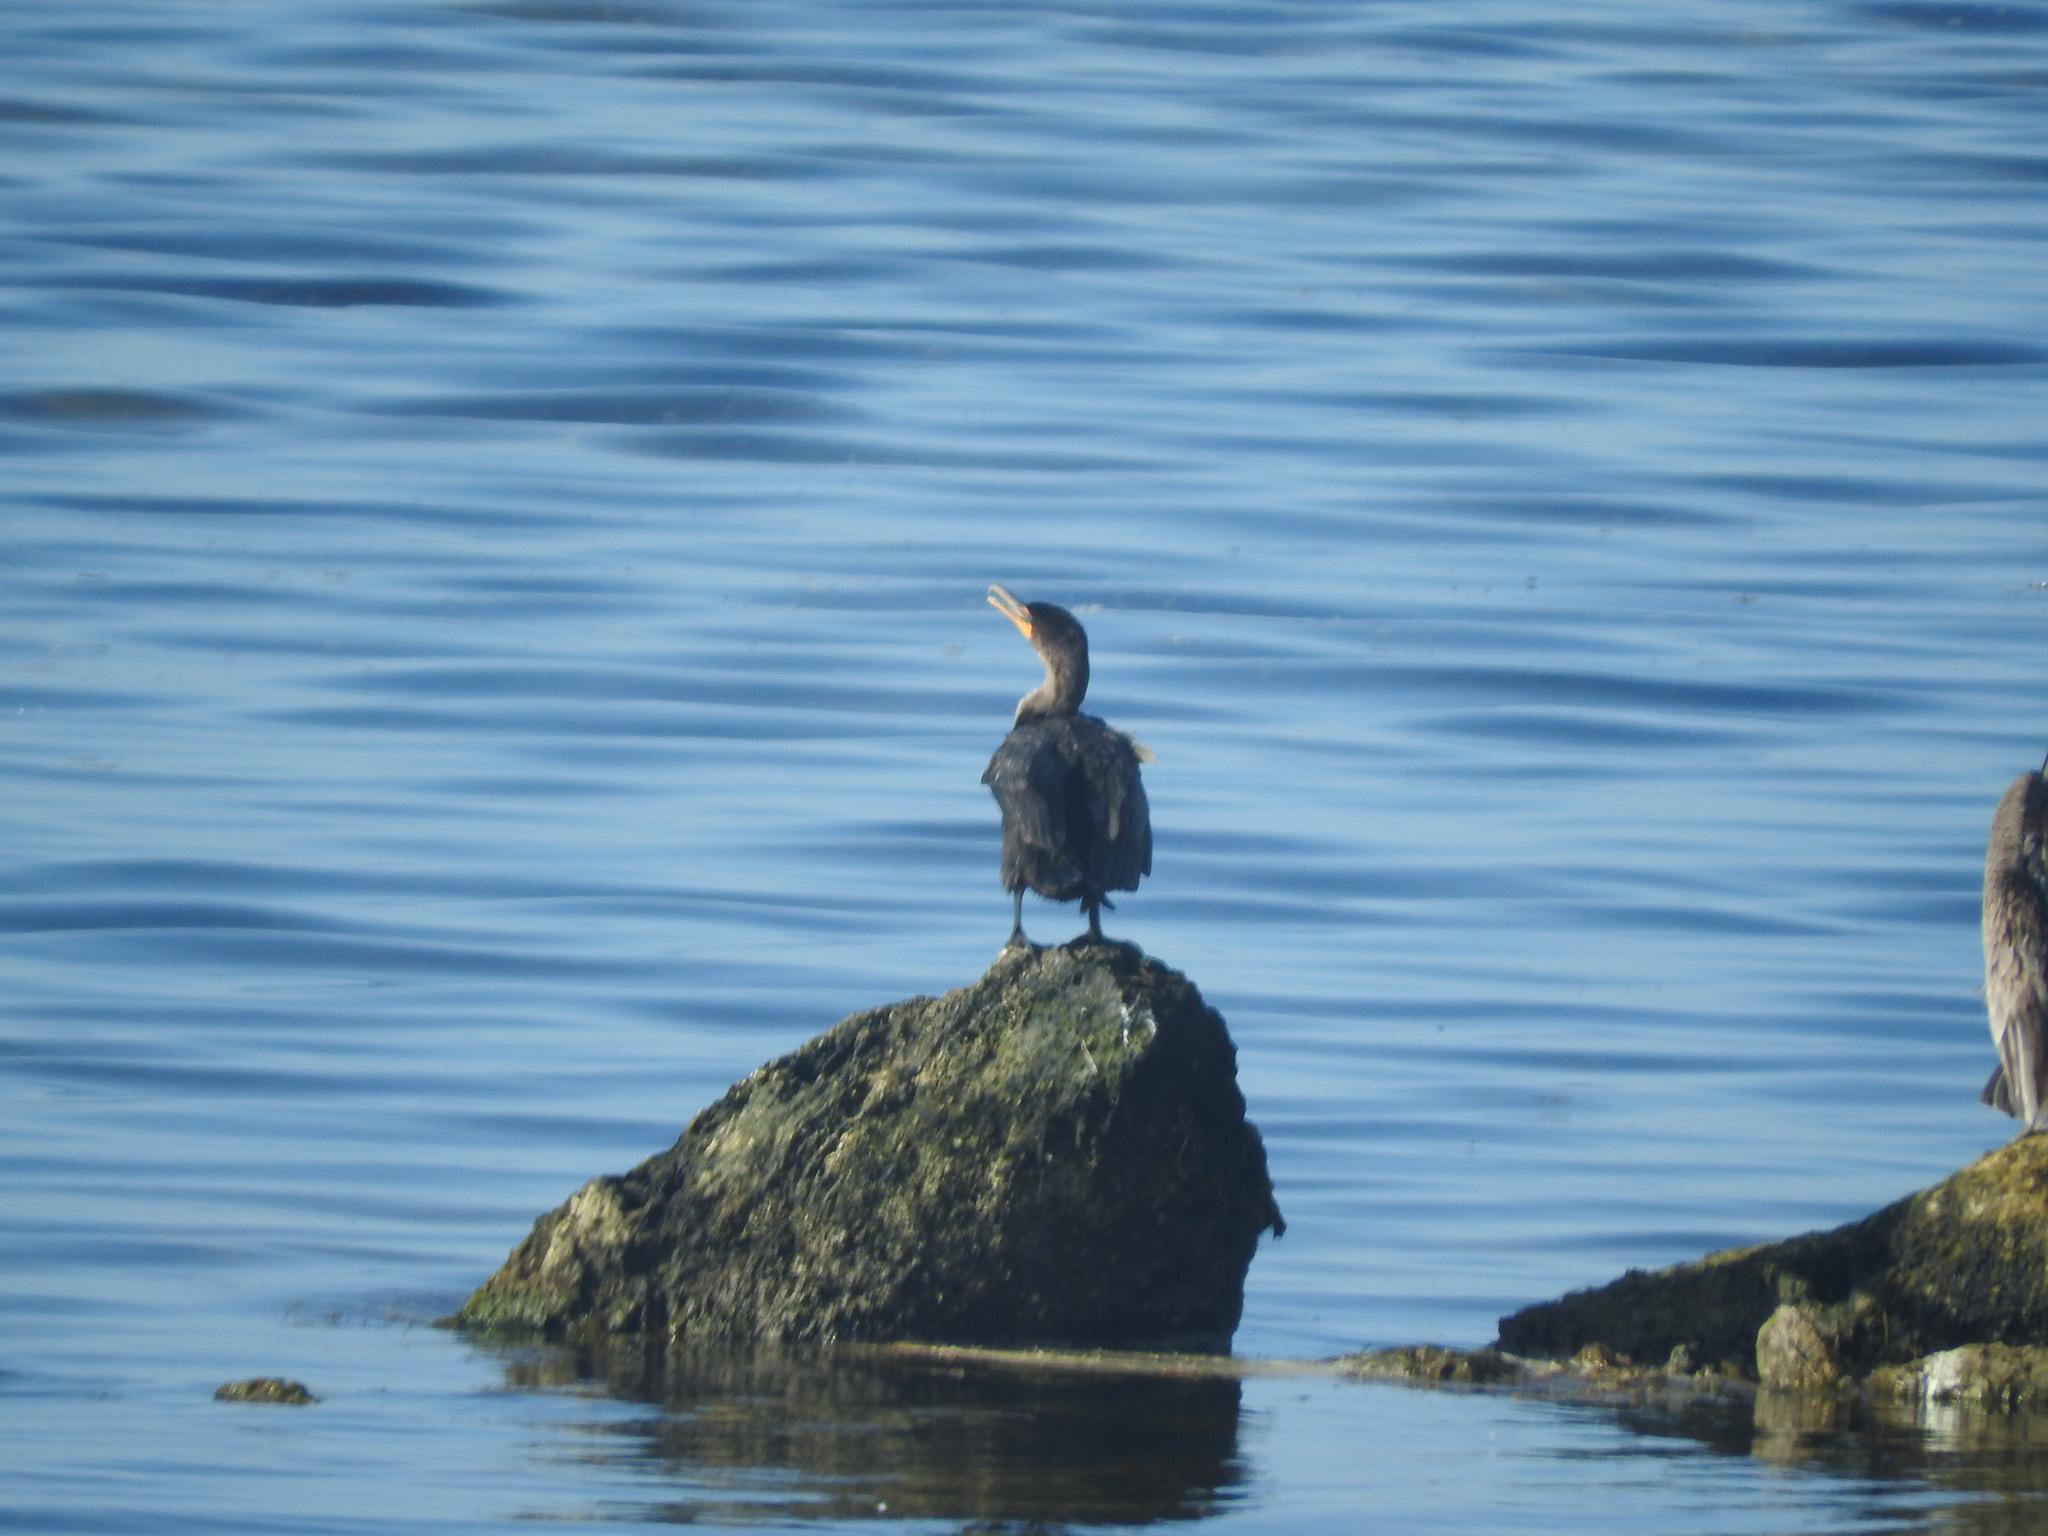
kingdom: Animalia
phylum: Chordata
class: Aves
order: Suliformes
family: Phalacrocoracidae
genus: Phalacrocorax
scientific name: Phalacrocorax auritus
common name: Double-crested cormorant
